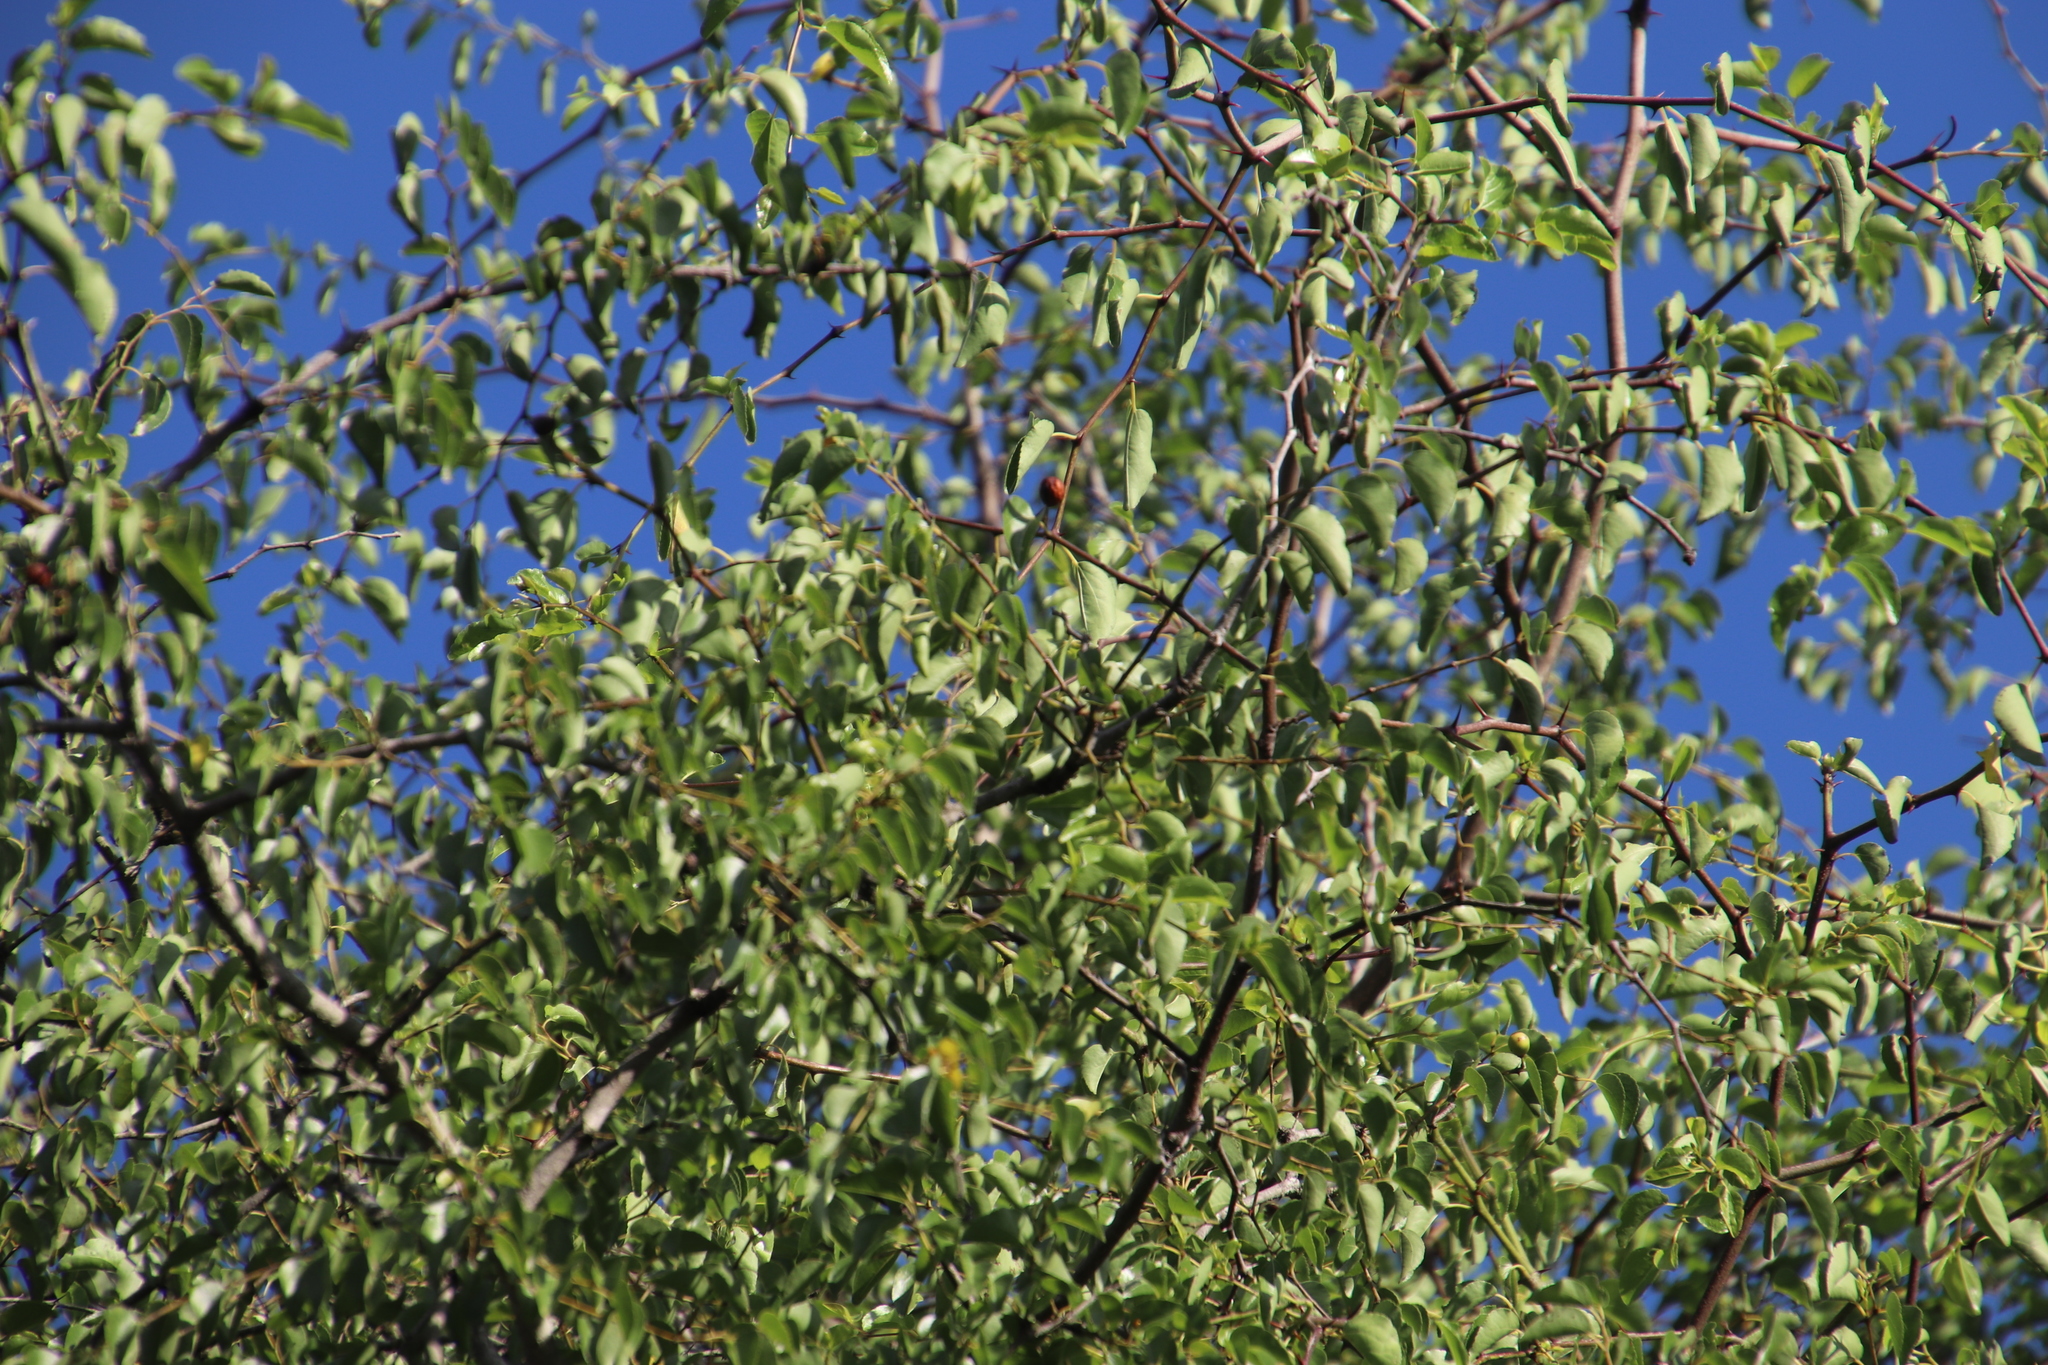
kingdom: Plantae
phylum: Tracheophyta
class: Magnoliopsida
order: Rosales
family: Rhamnaceae
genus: Ziziphus
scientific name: Ziziphus mucronata
